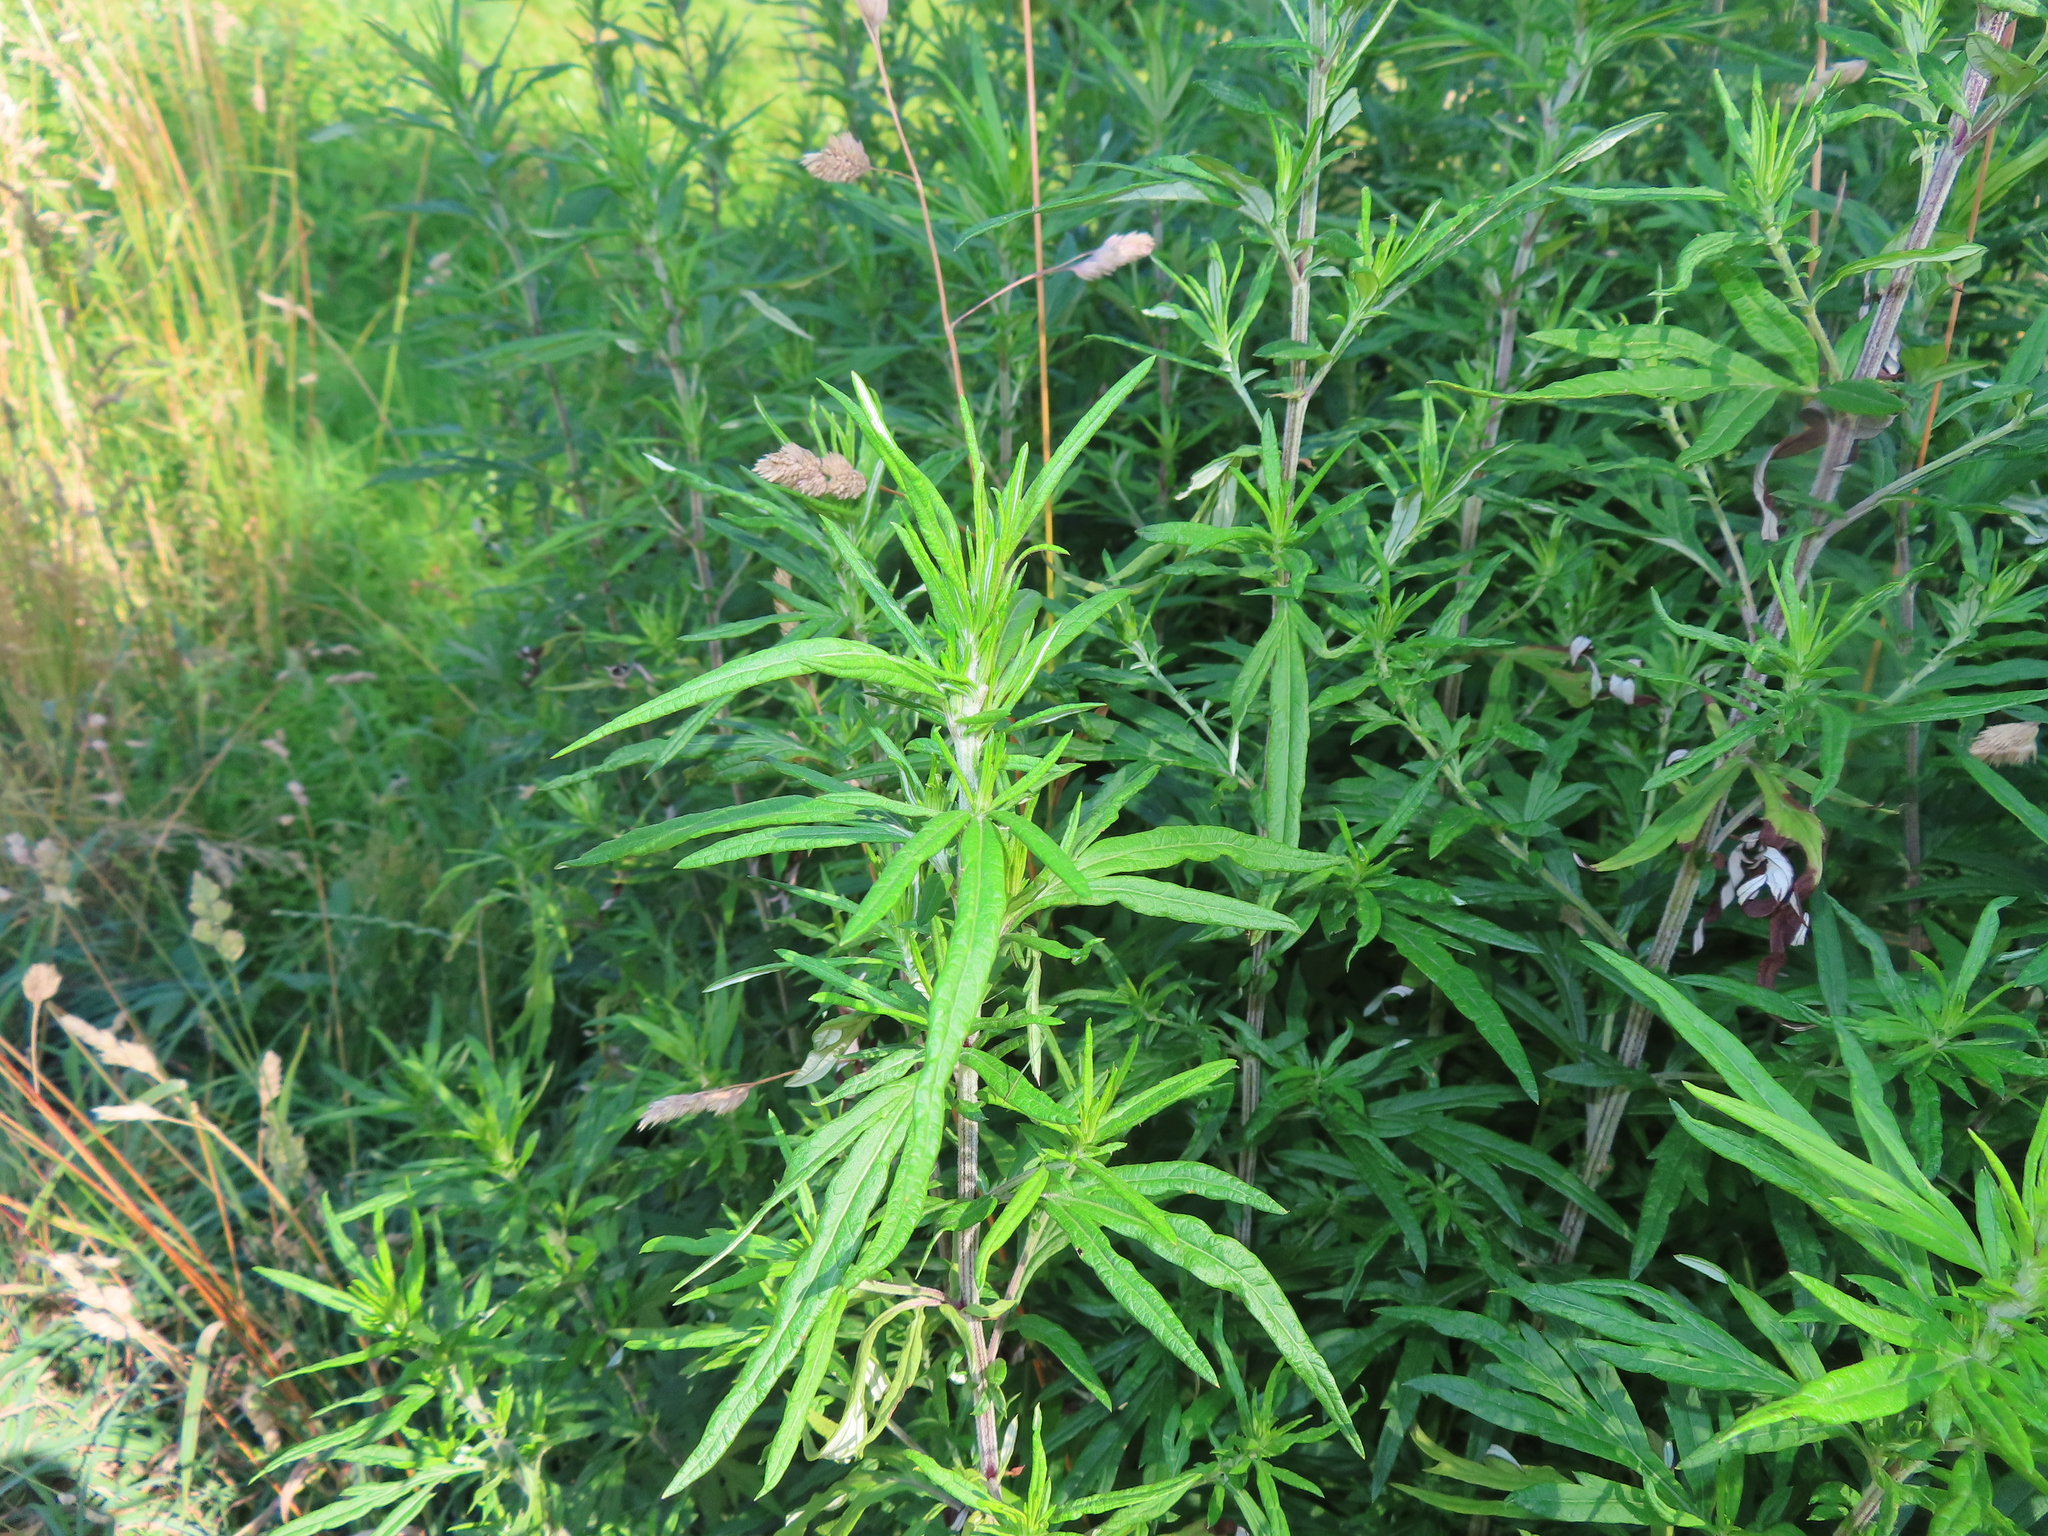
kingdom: Plantae
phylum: Tracheophyta
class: Magnoliopsida
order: Asterales
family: Asteraceae
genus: Artemisia
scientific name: Artemisia vulgaris
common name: Mugwort
